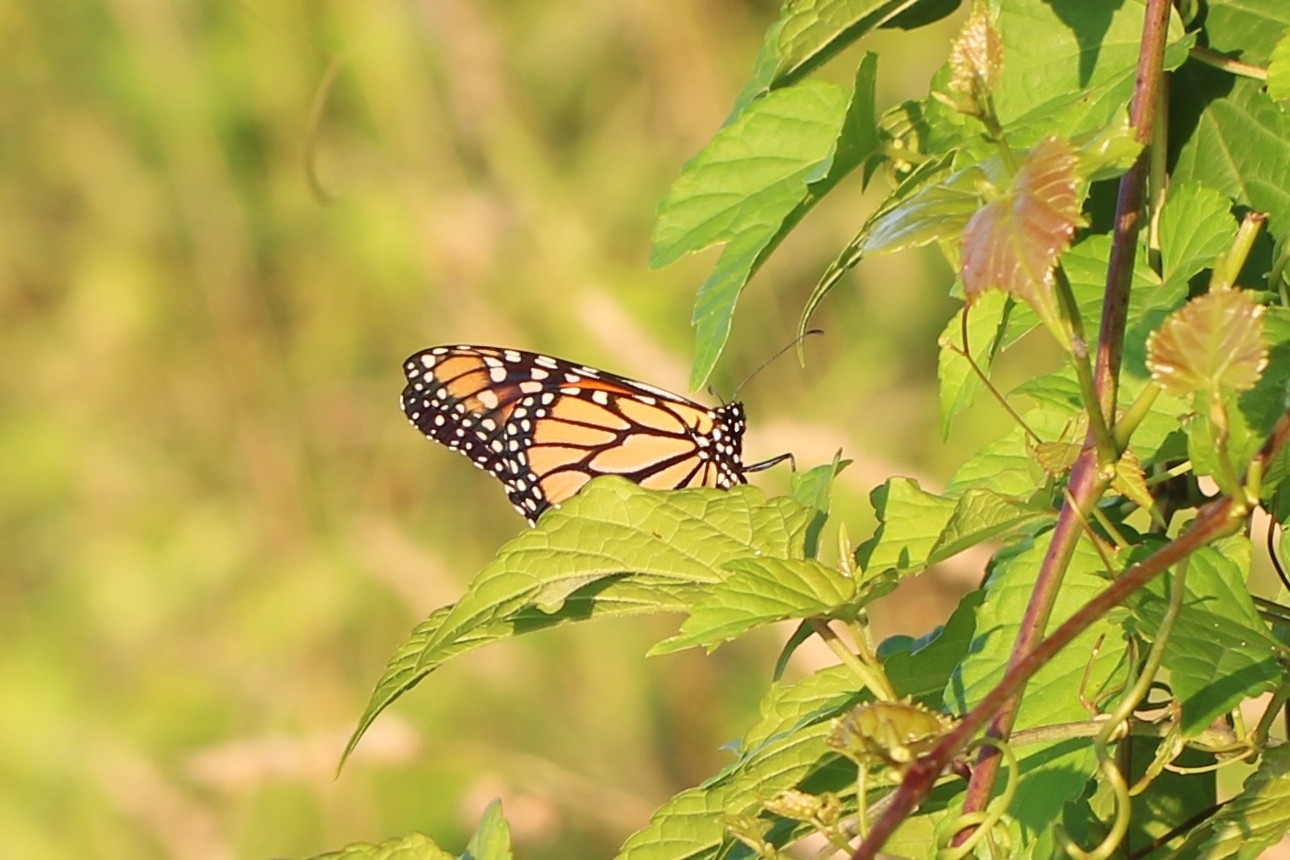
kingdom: Animalia
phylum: Arthropoda
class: Insecta
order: Lepidoptera
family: Nymphalidae
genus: Danaus
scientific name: Danaus plexippus
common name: Monarch
